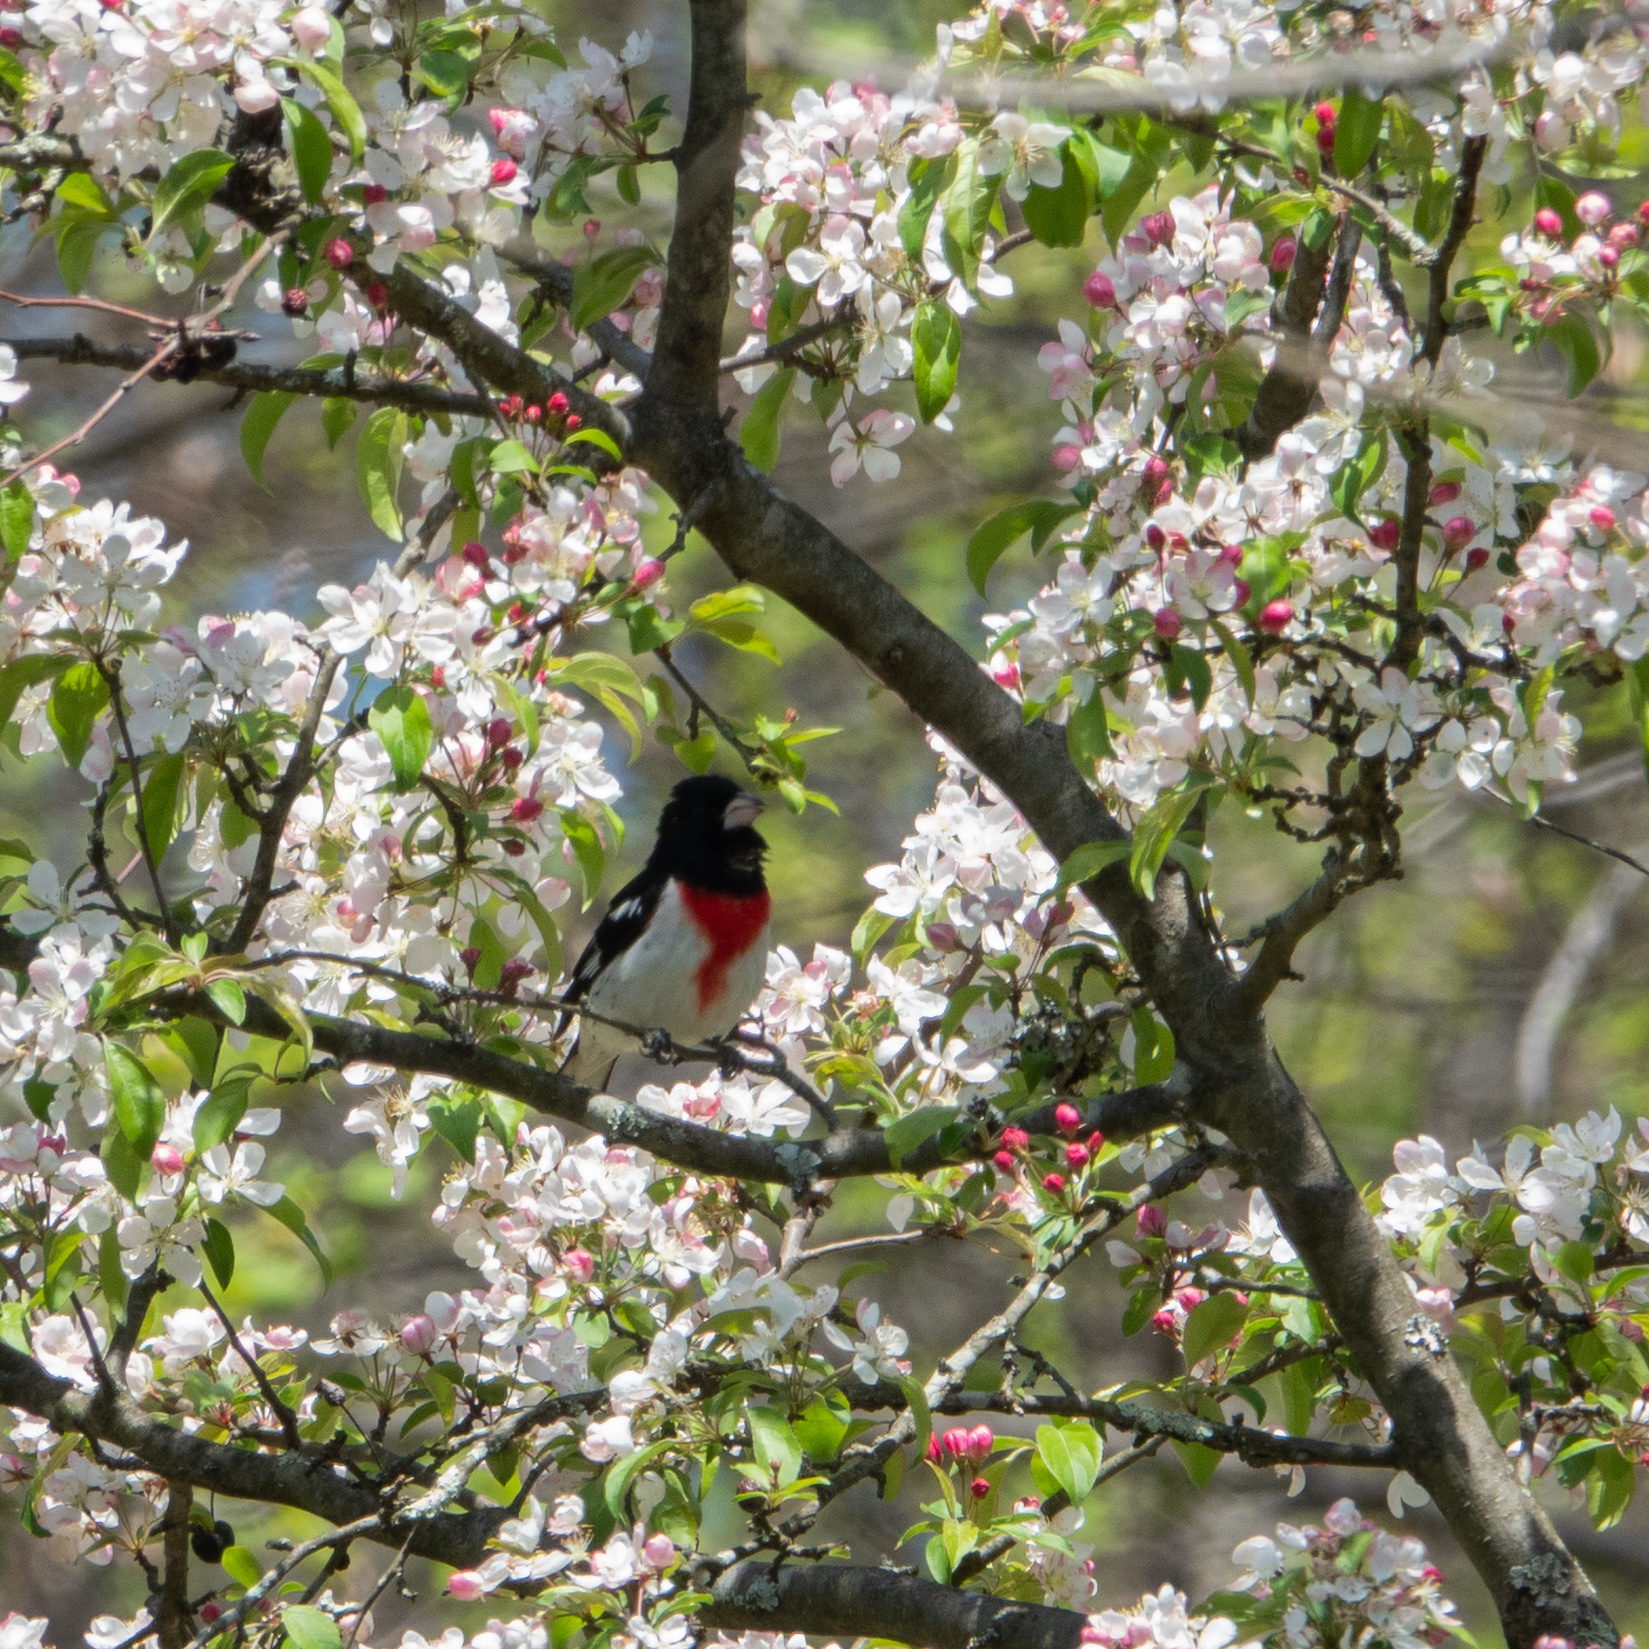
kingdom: Animalia
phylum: Chordata
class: Aves
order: Passeriformes
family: Cardinalidae
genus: Pheucticus
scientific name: Pheucticus ludovicianus
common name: Rose-breasted grosbeak
